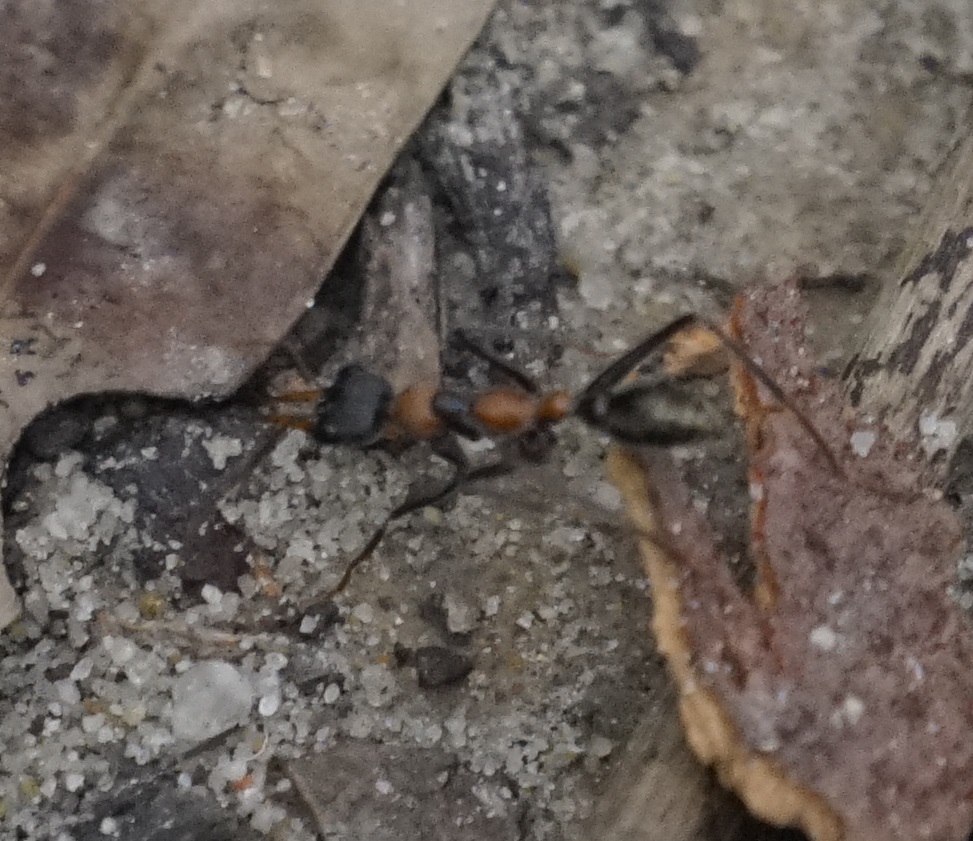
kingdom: Animalia
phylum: Arthropoda
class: Insecta
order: Hymenoptera
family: Formicidae
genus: Myrmecia
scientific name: Myrmecia nigrocincta
